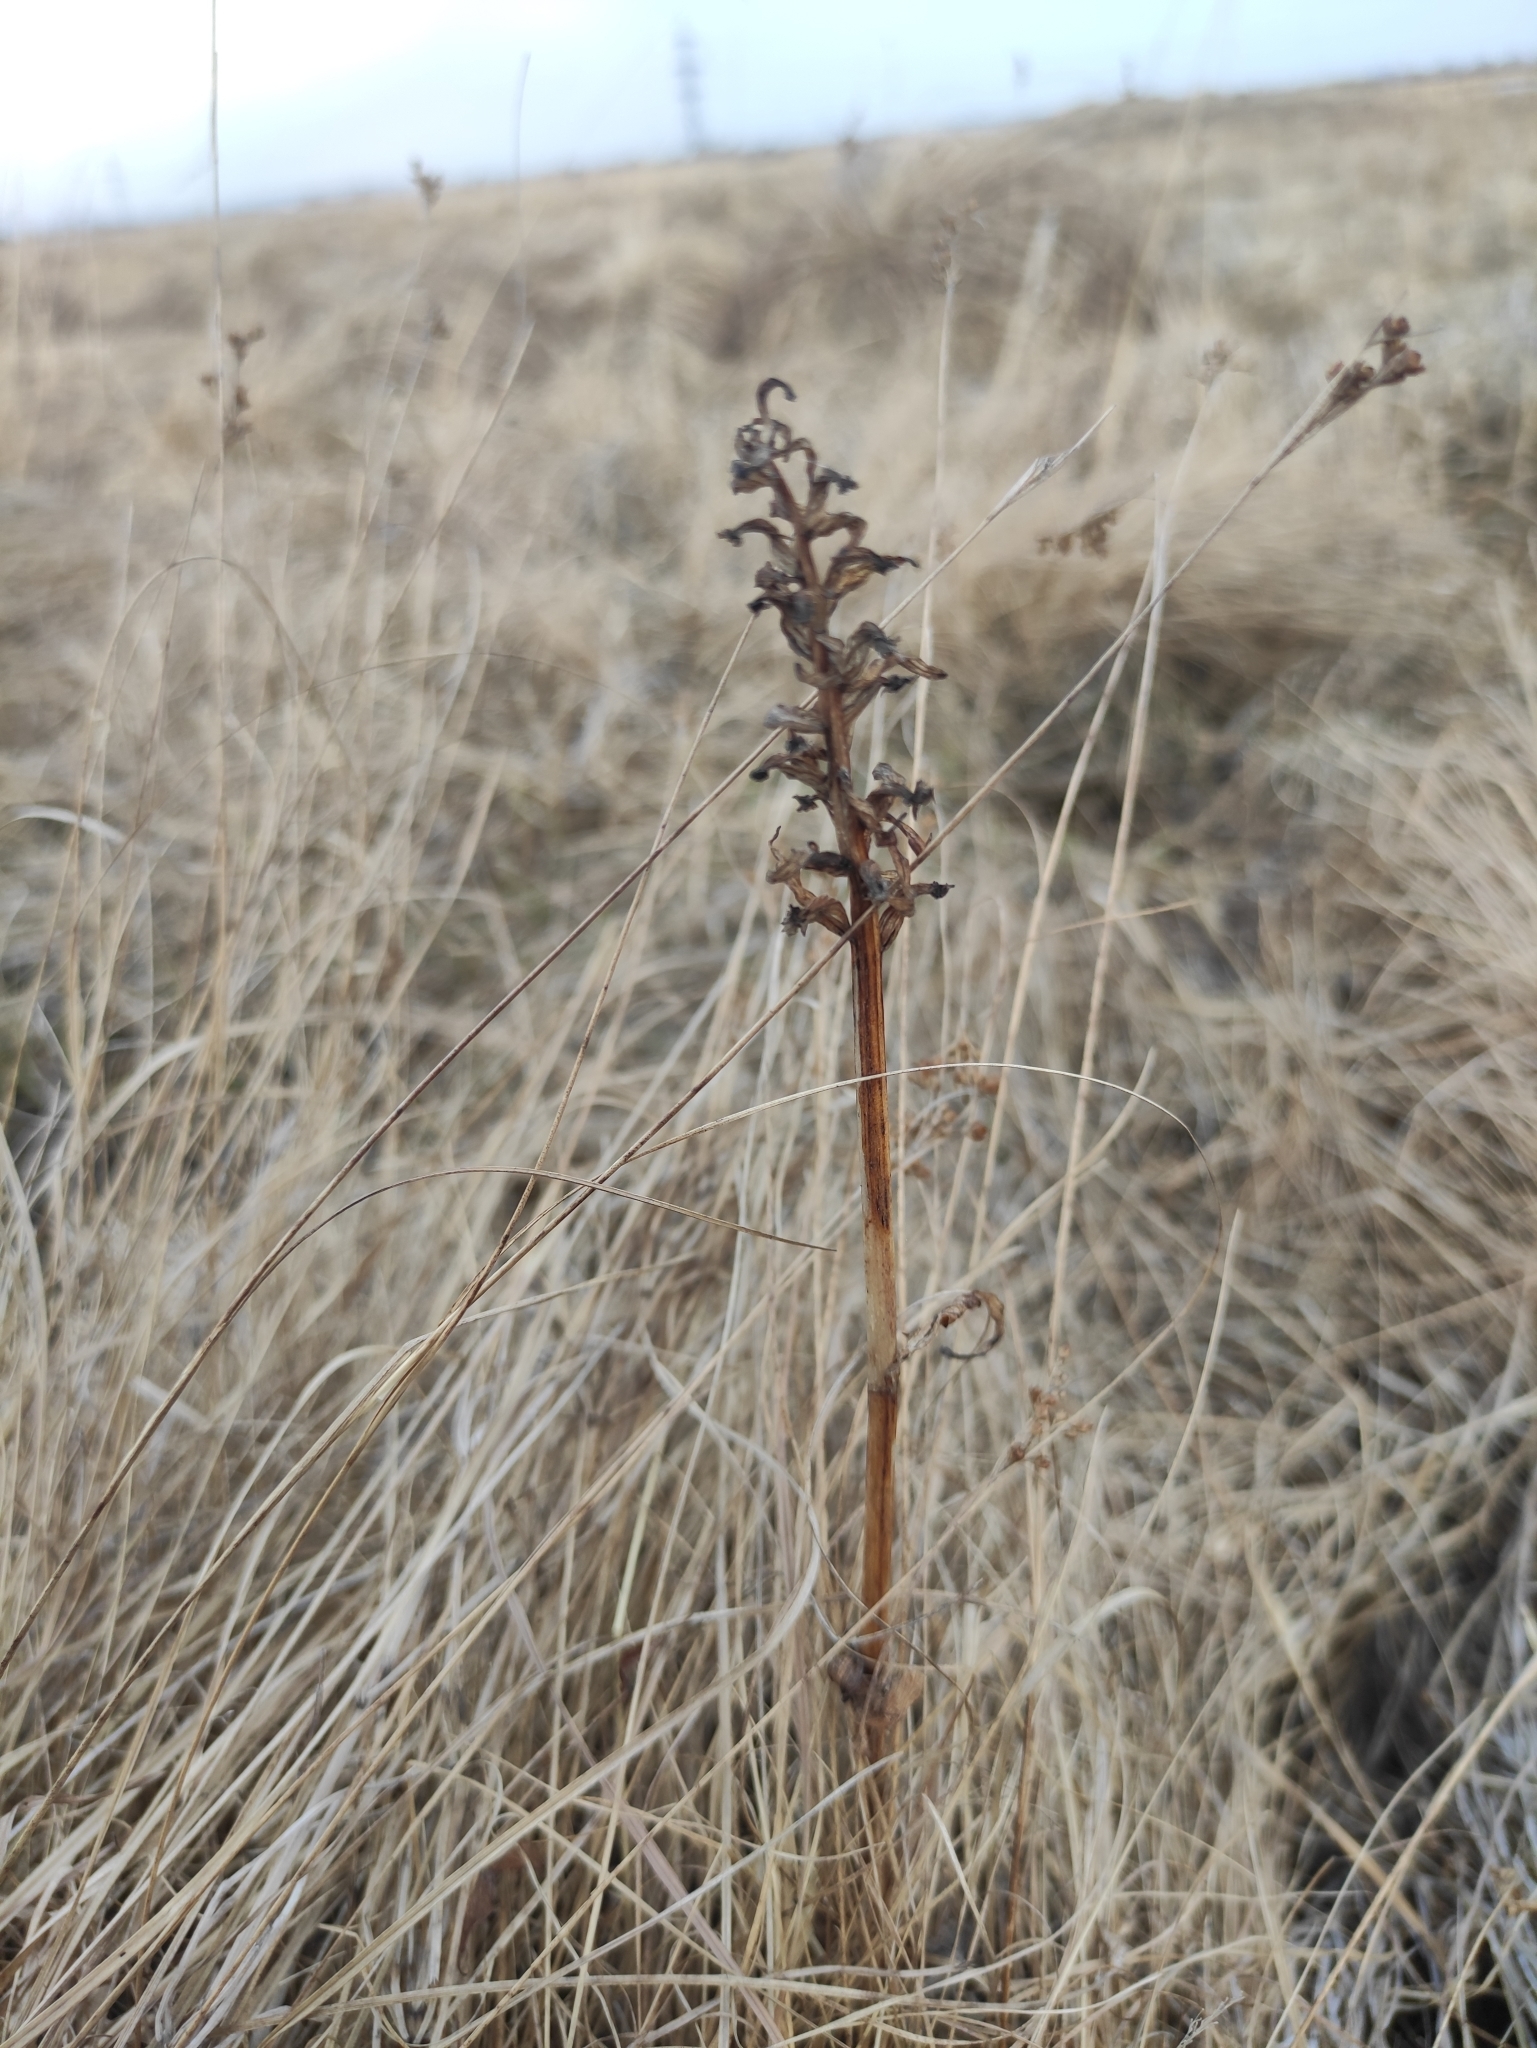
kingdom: Plantae
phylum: Tracheophyta
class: Liliopsida
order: Asparagales
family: Orchidaceae
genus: Orchis
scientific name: Orchis militaris
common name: Military orchid
